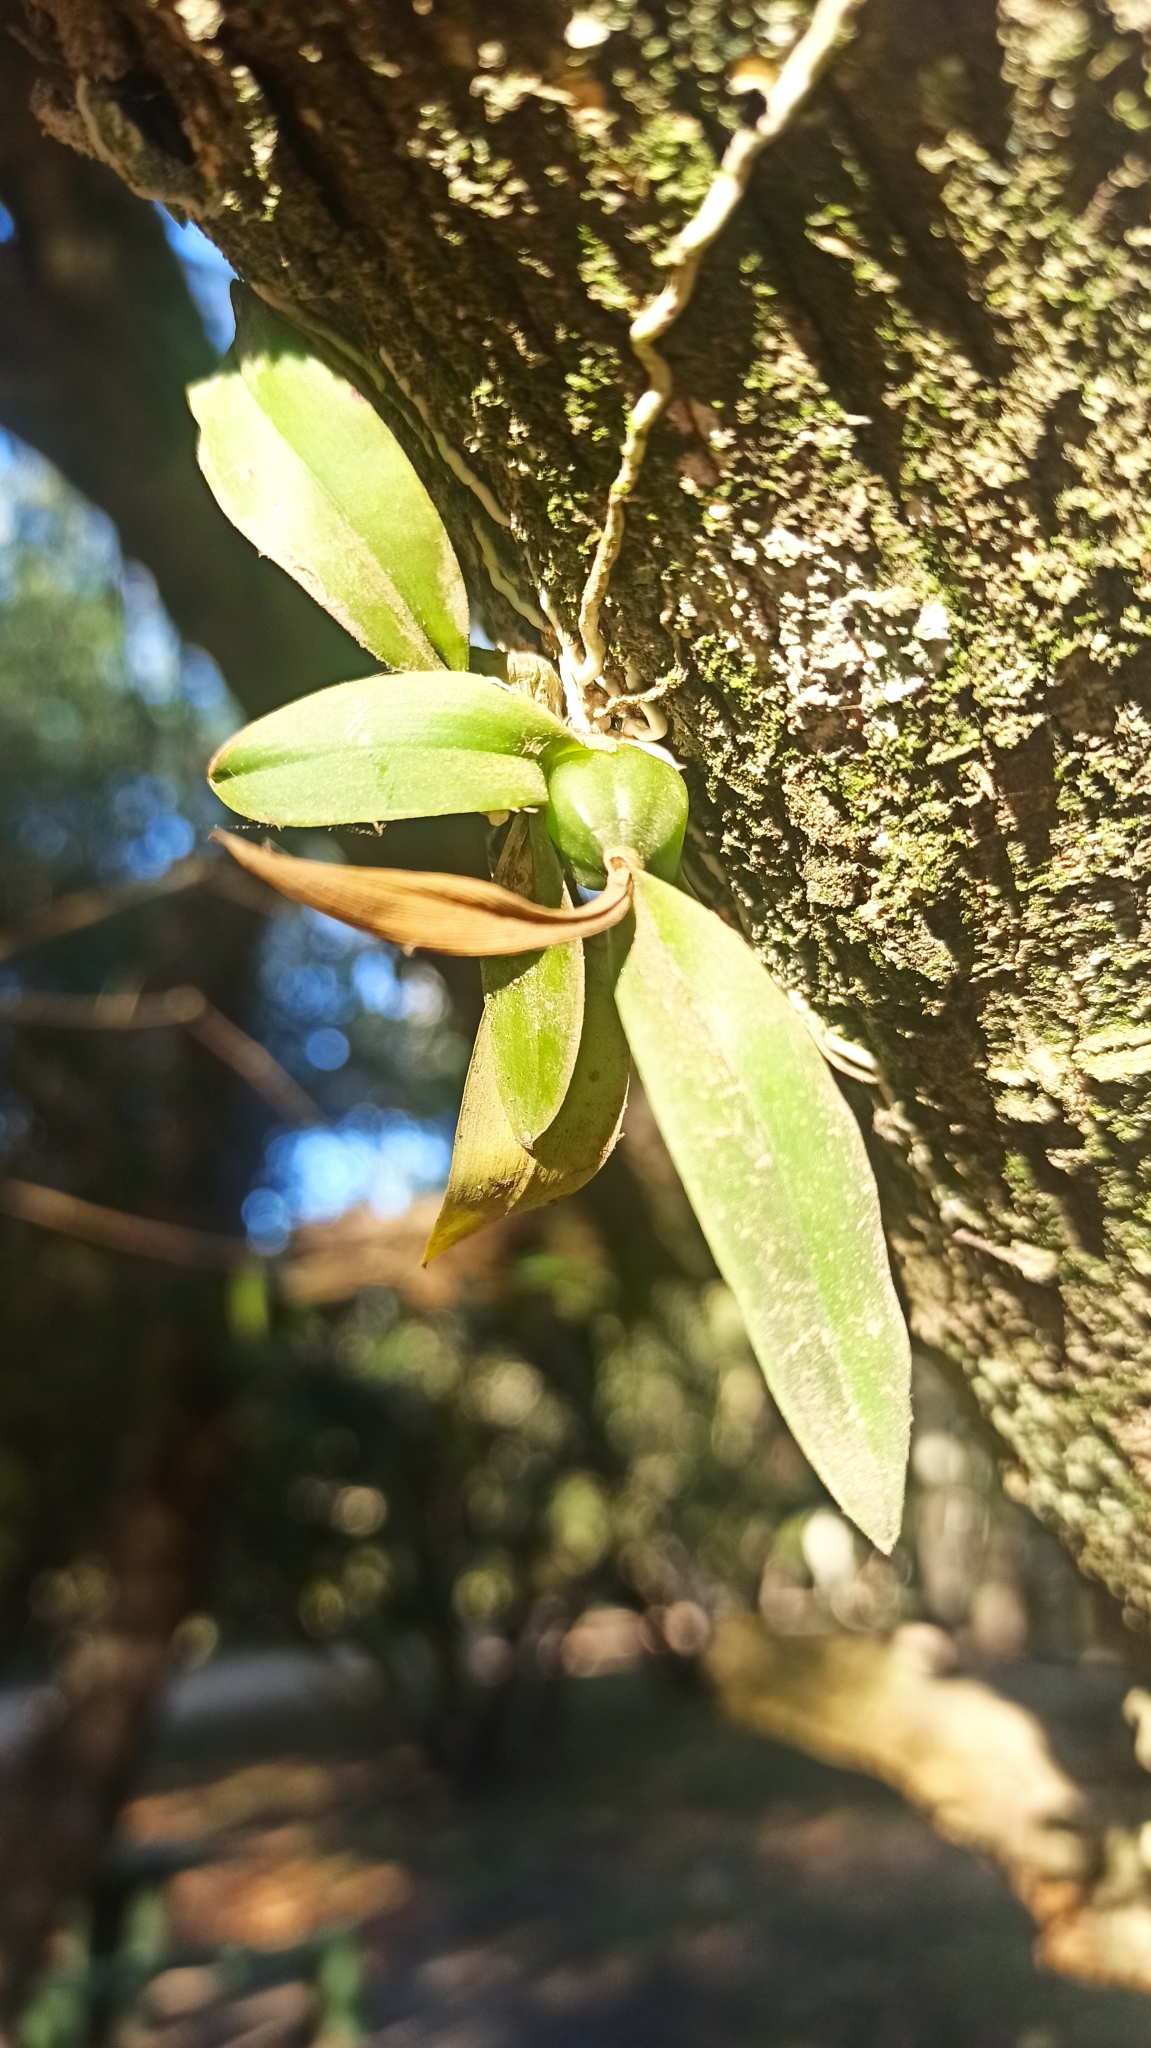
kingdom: Plantae
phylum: Tracheophyta
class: Liliopsida
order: Asparagales
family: Orchidaceae
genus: Gomesa
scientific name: Gomesa bifolia
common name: Dancing ladies
